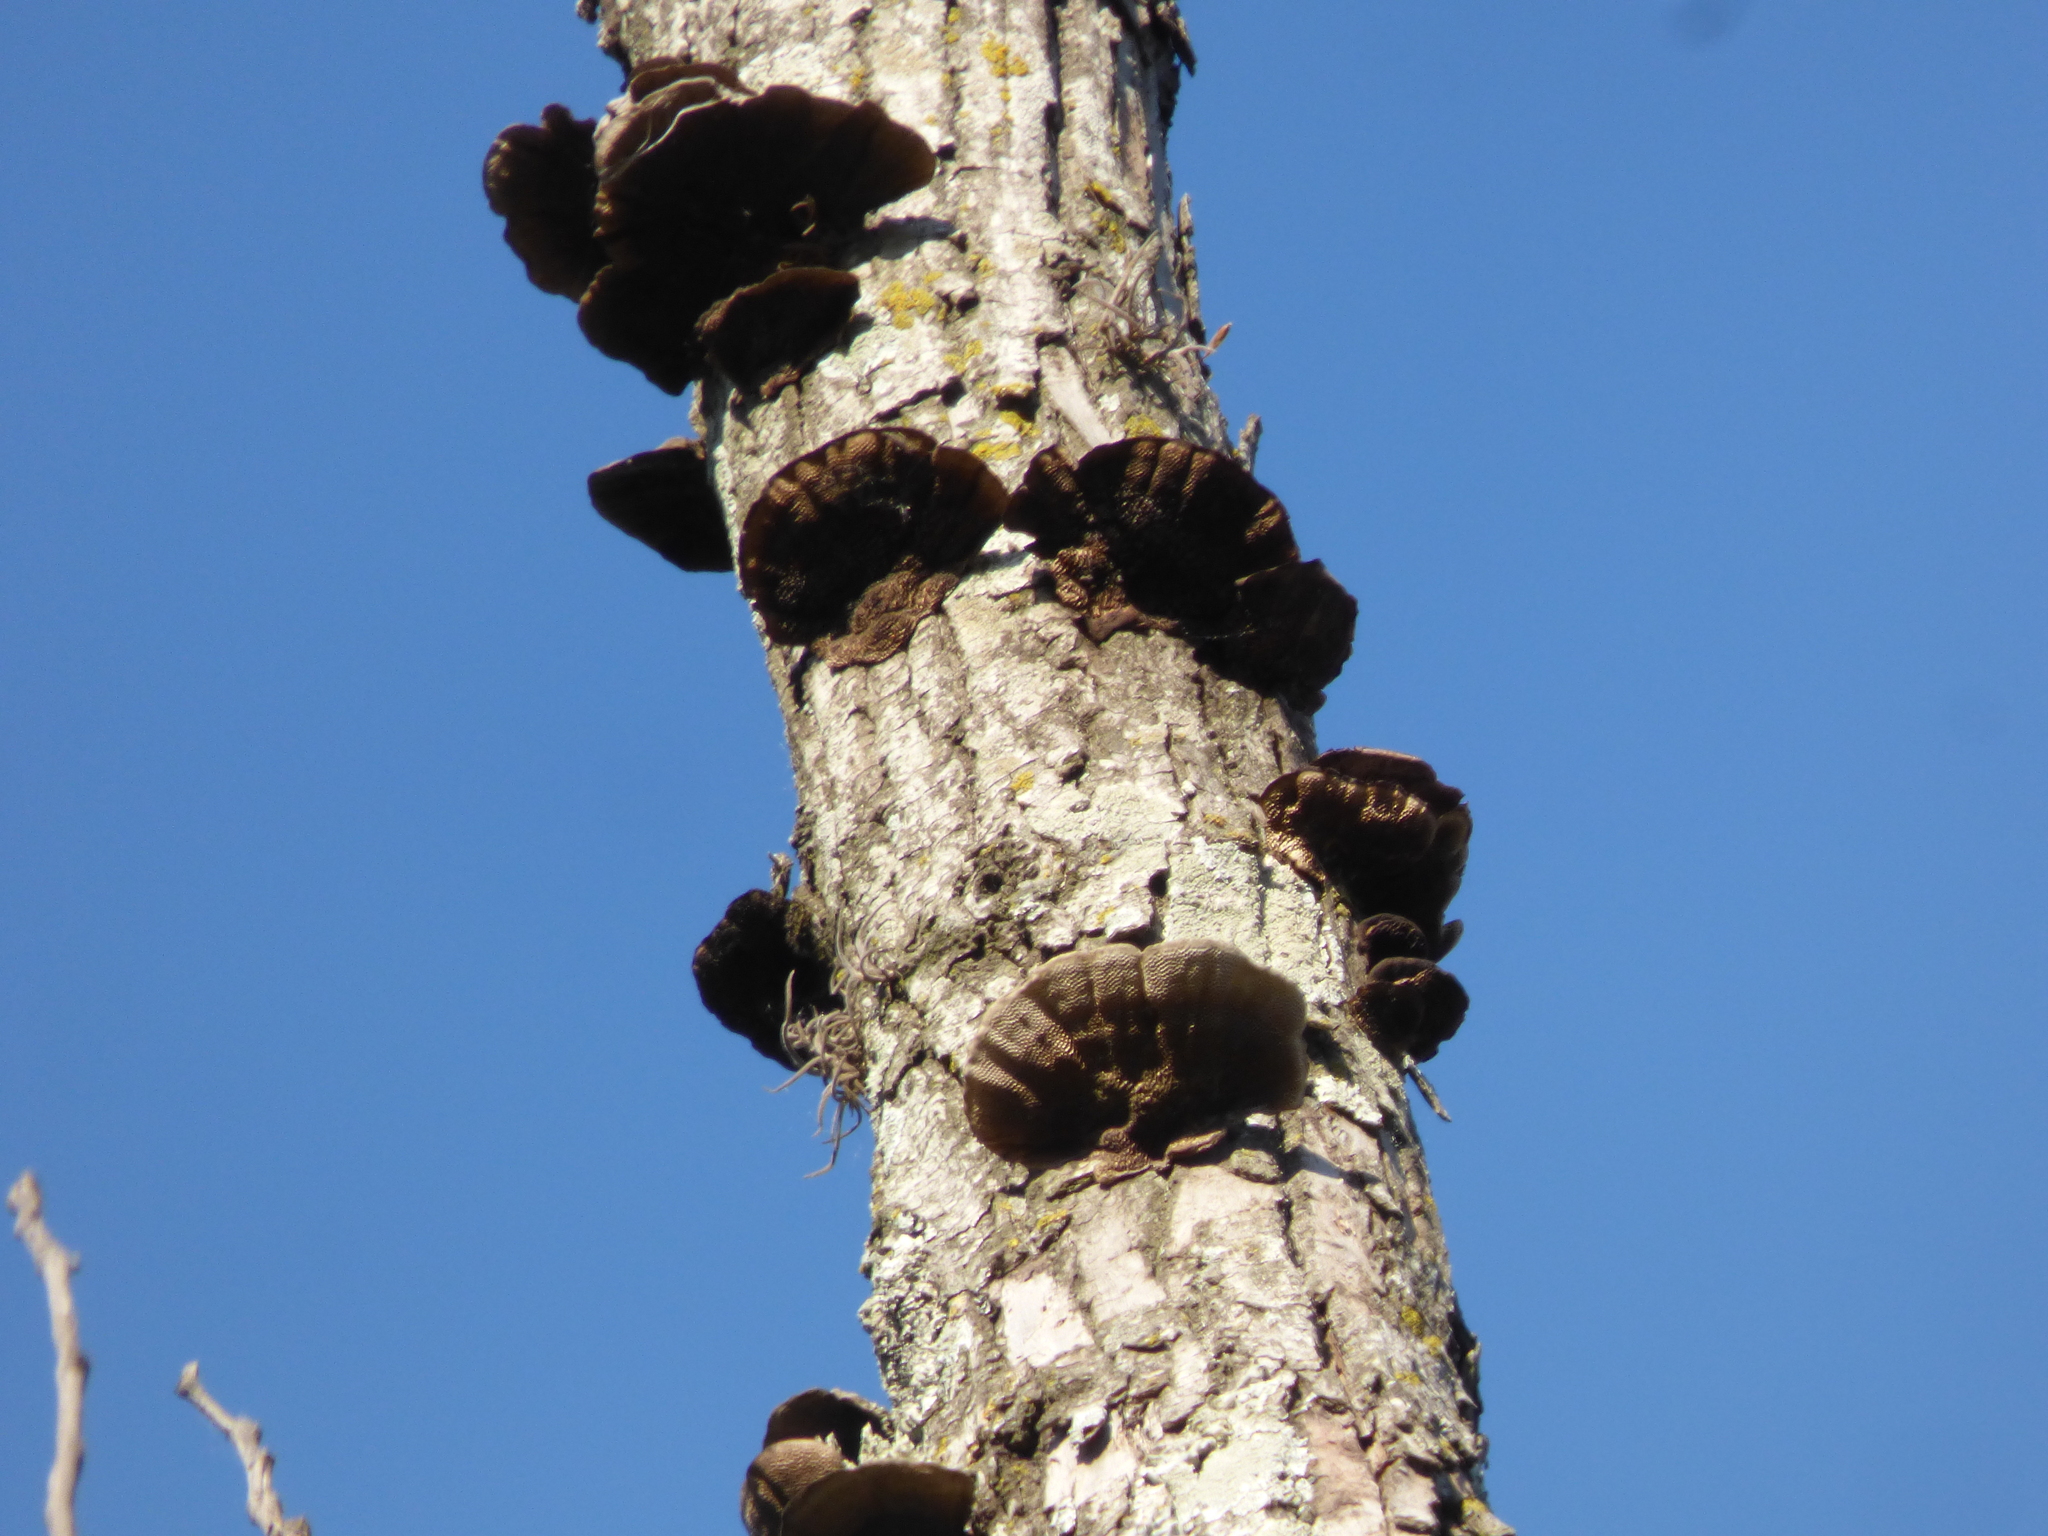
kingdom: Fungi
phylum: Basidiomycota
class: Agaricomycetes
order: Polyporales
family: Cerrenaceae
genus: Cerrena
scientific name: Cerrena hydnoides
